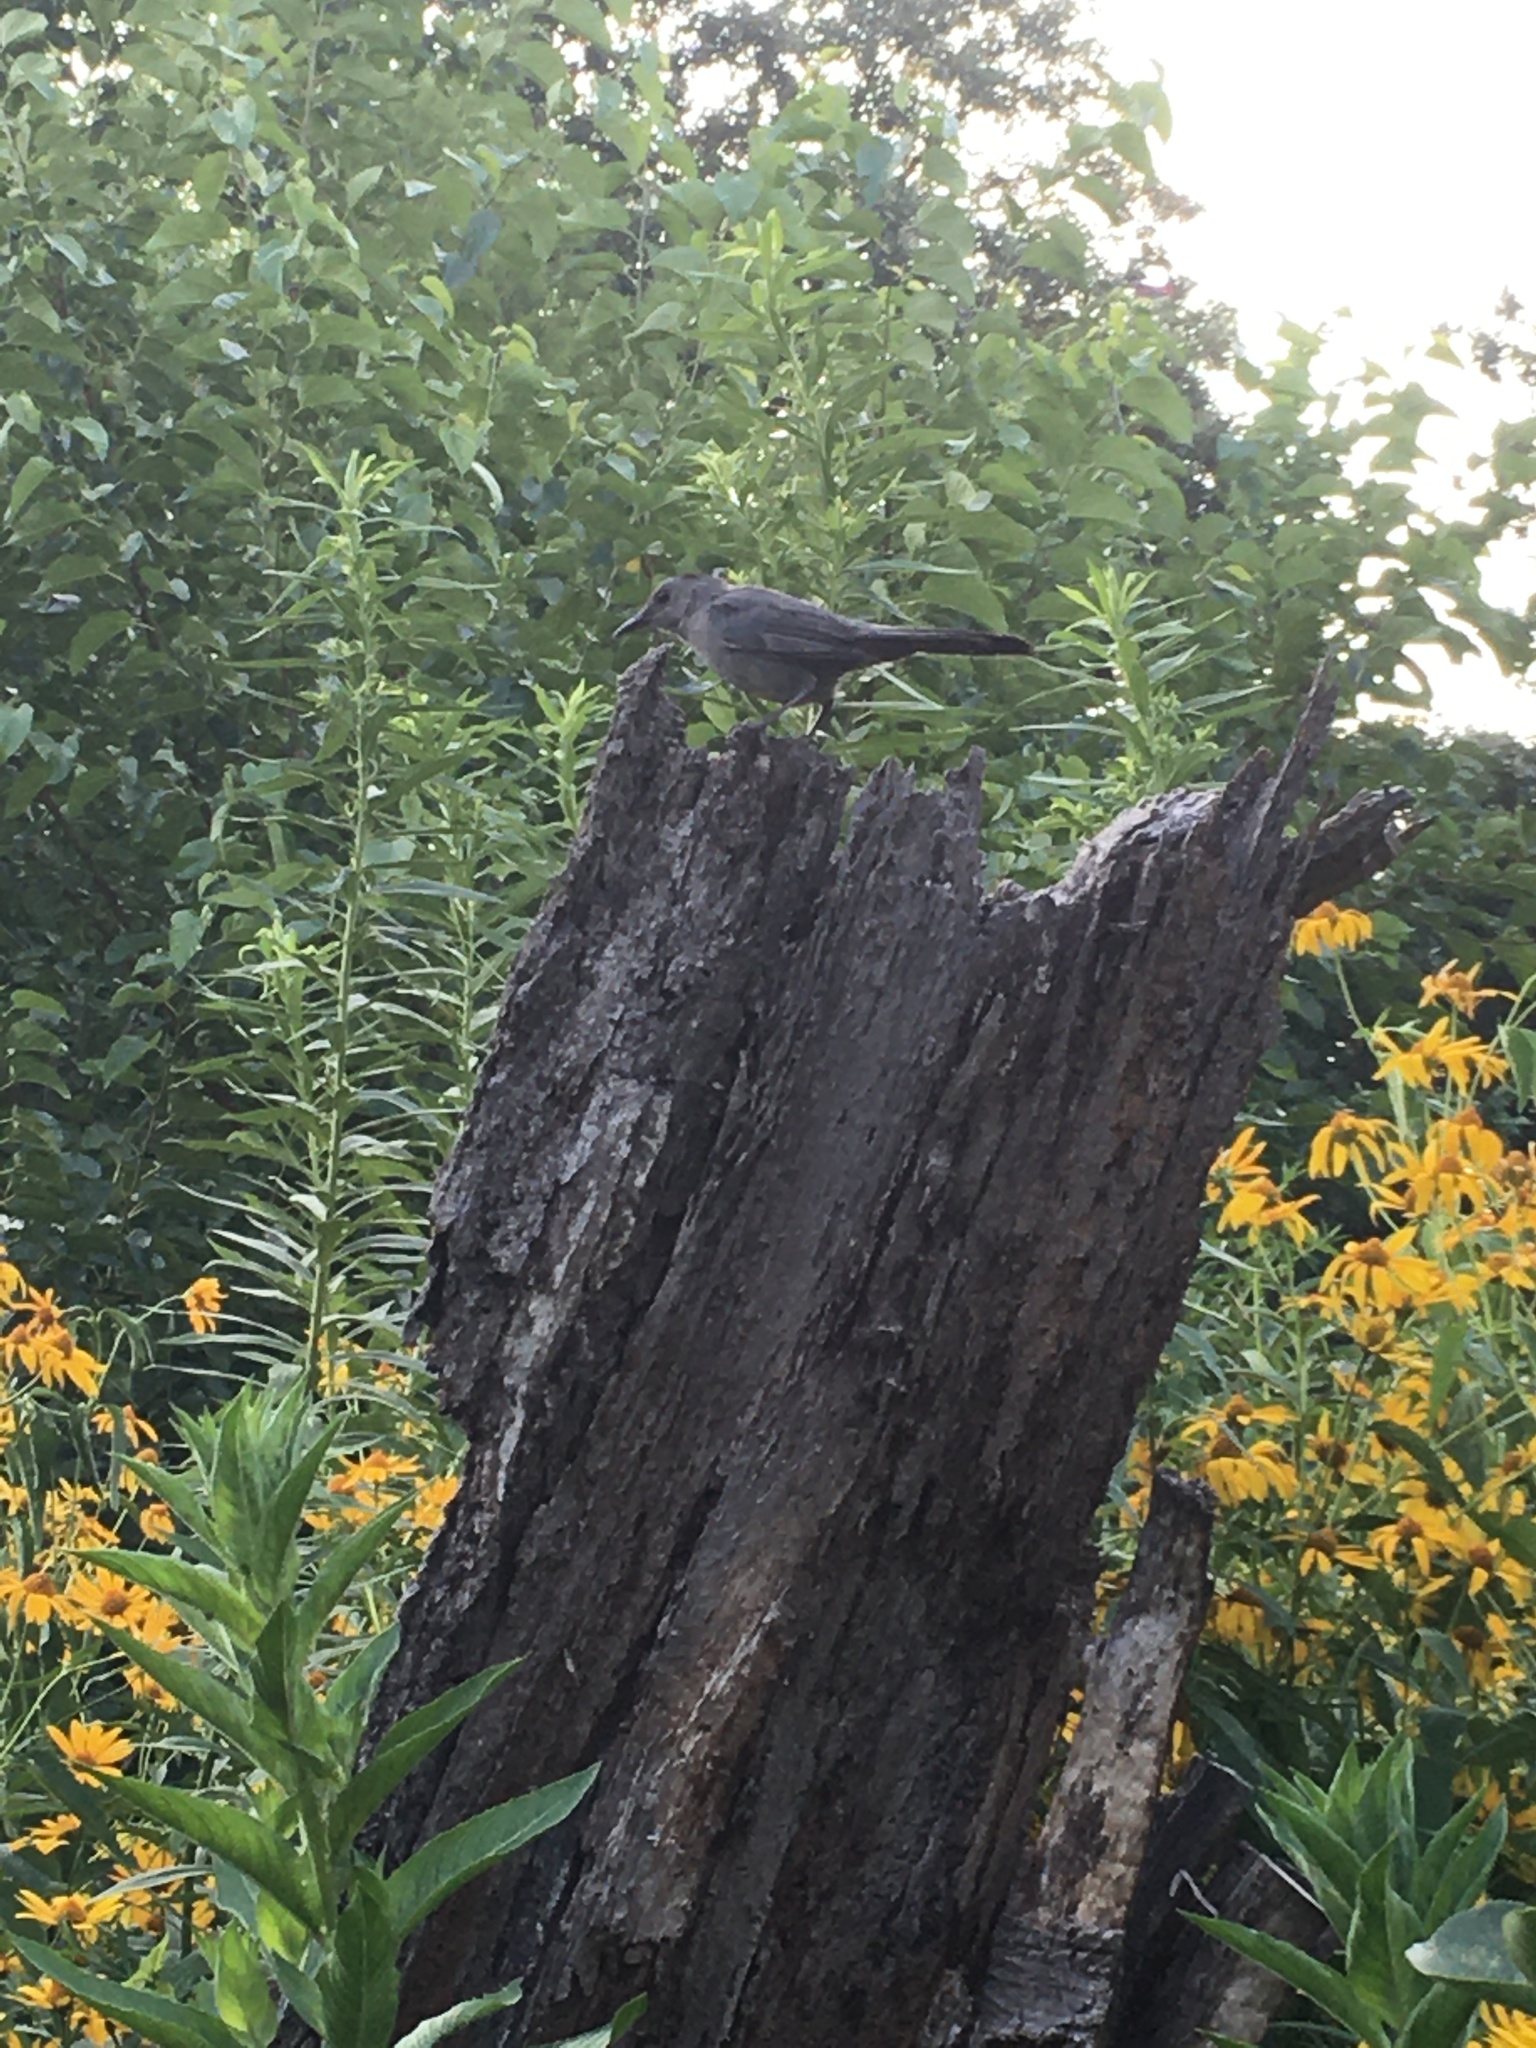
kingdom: Animalia
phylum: Chordata
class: Aves
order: Passeriformes
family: Mimidae
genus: Dumetella
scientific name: Dumetella carolinensis
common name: Gray catbird
